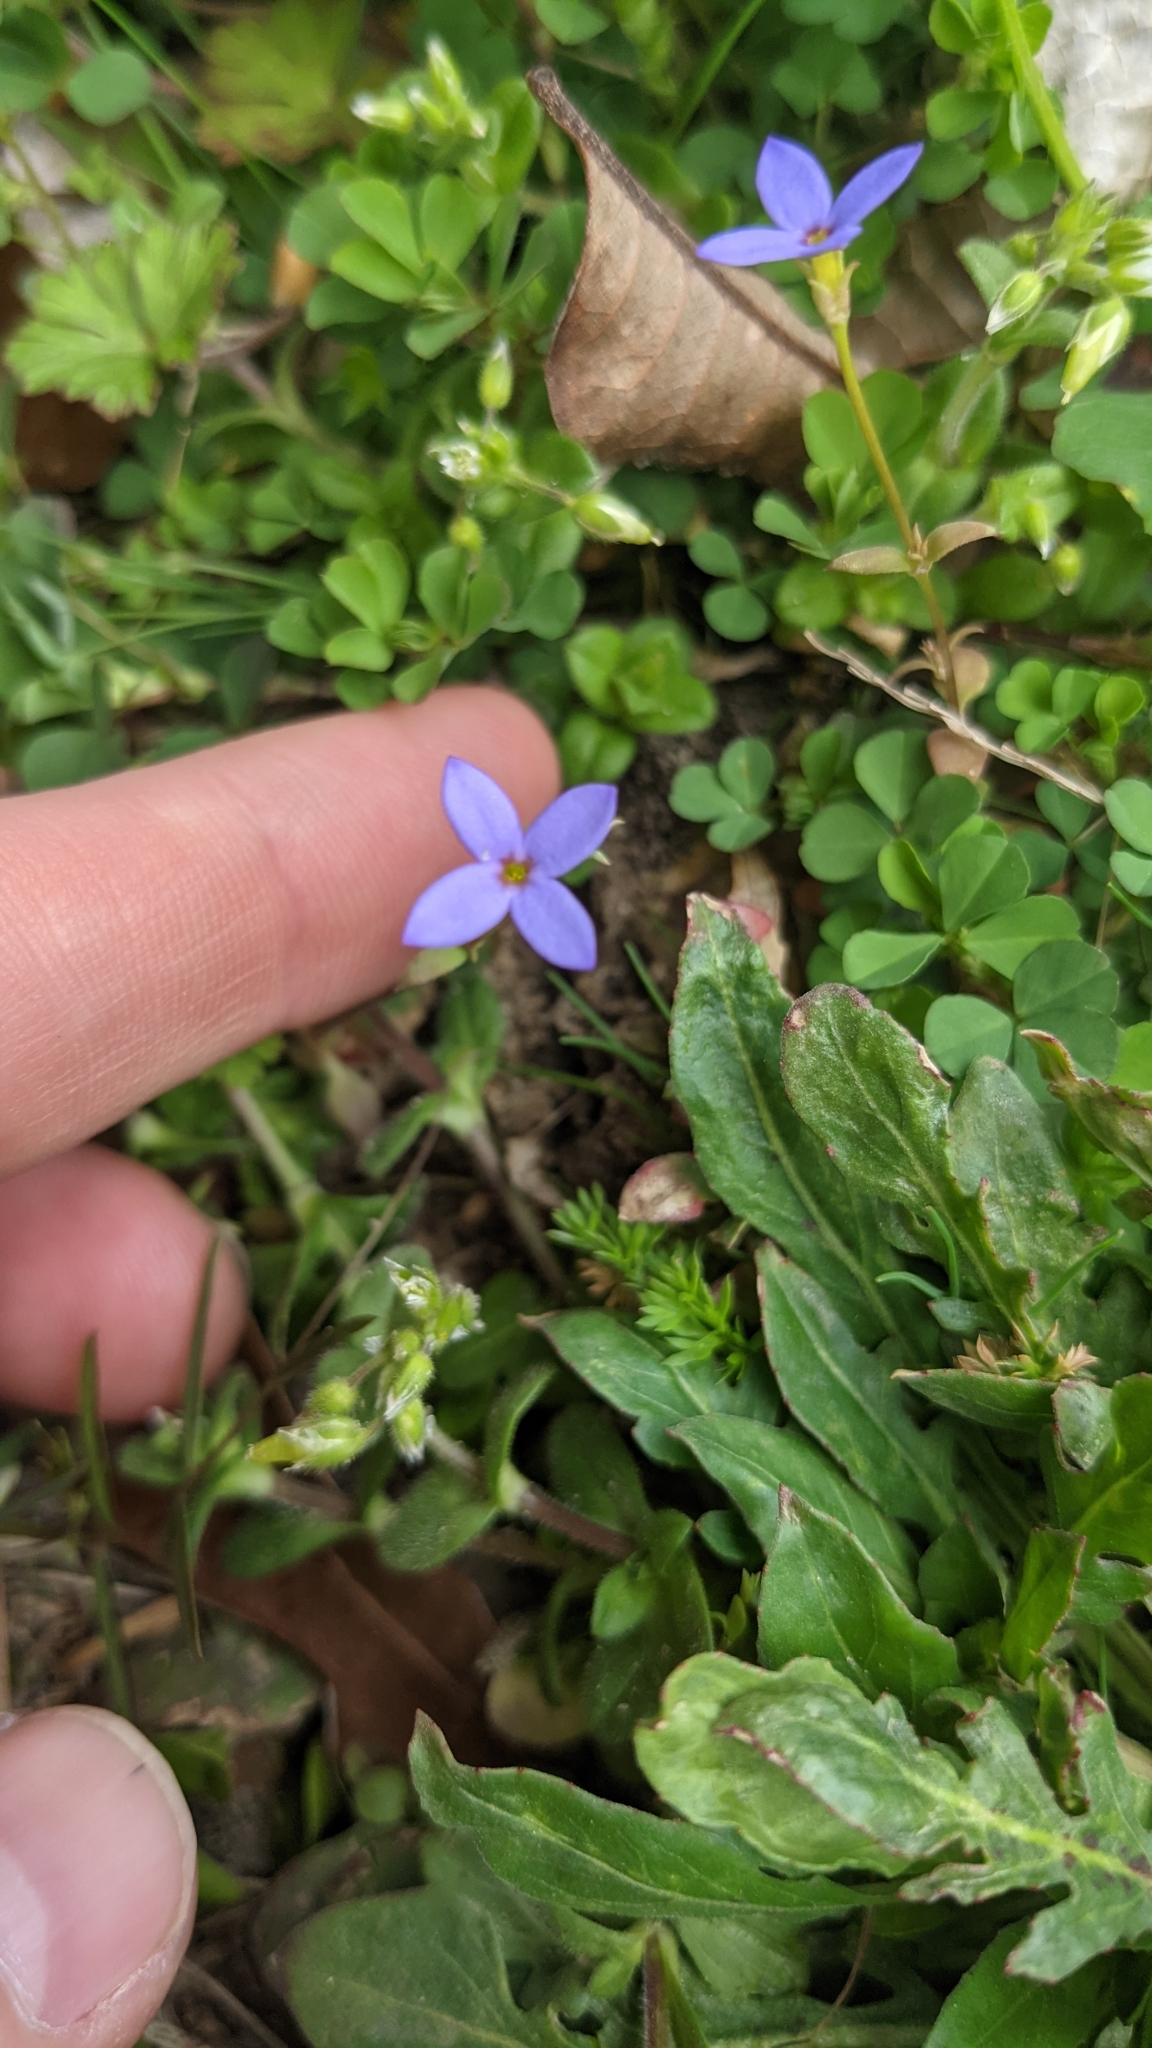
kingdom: Plantae
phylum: Tracheophyta
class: Magnoliopsida
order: Gentianales
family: Rubiaceae
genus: Houstonia
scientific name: Houstonia pusilla
